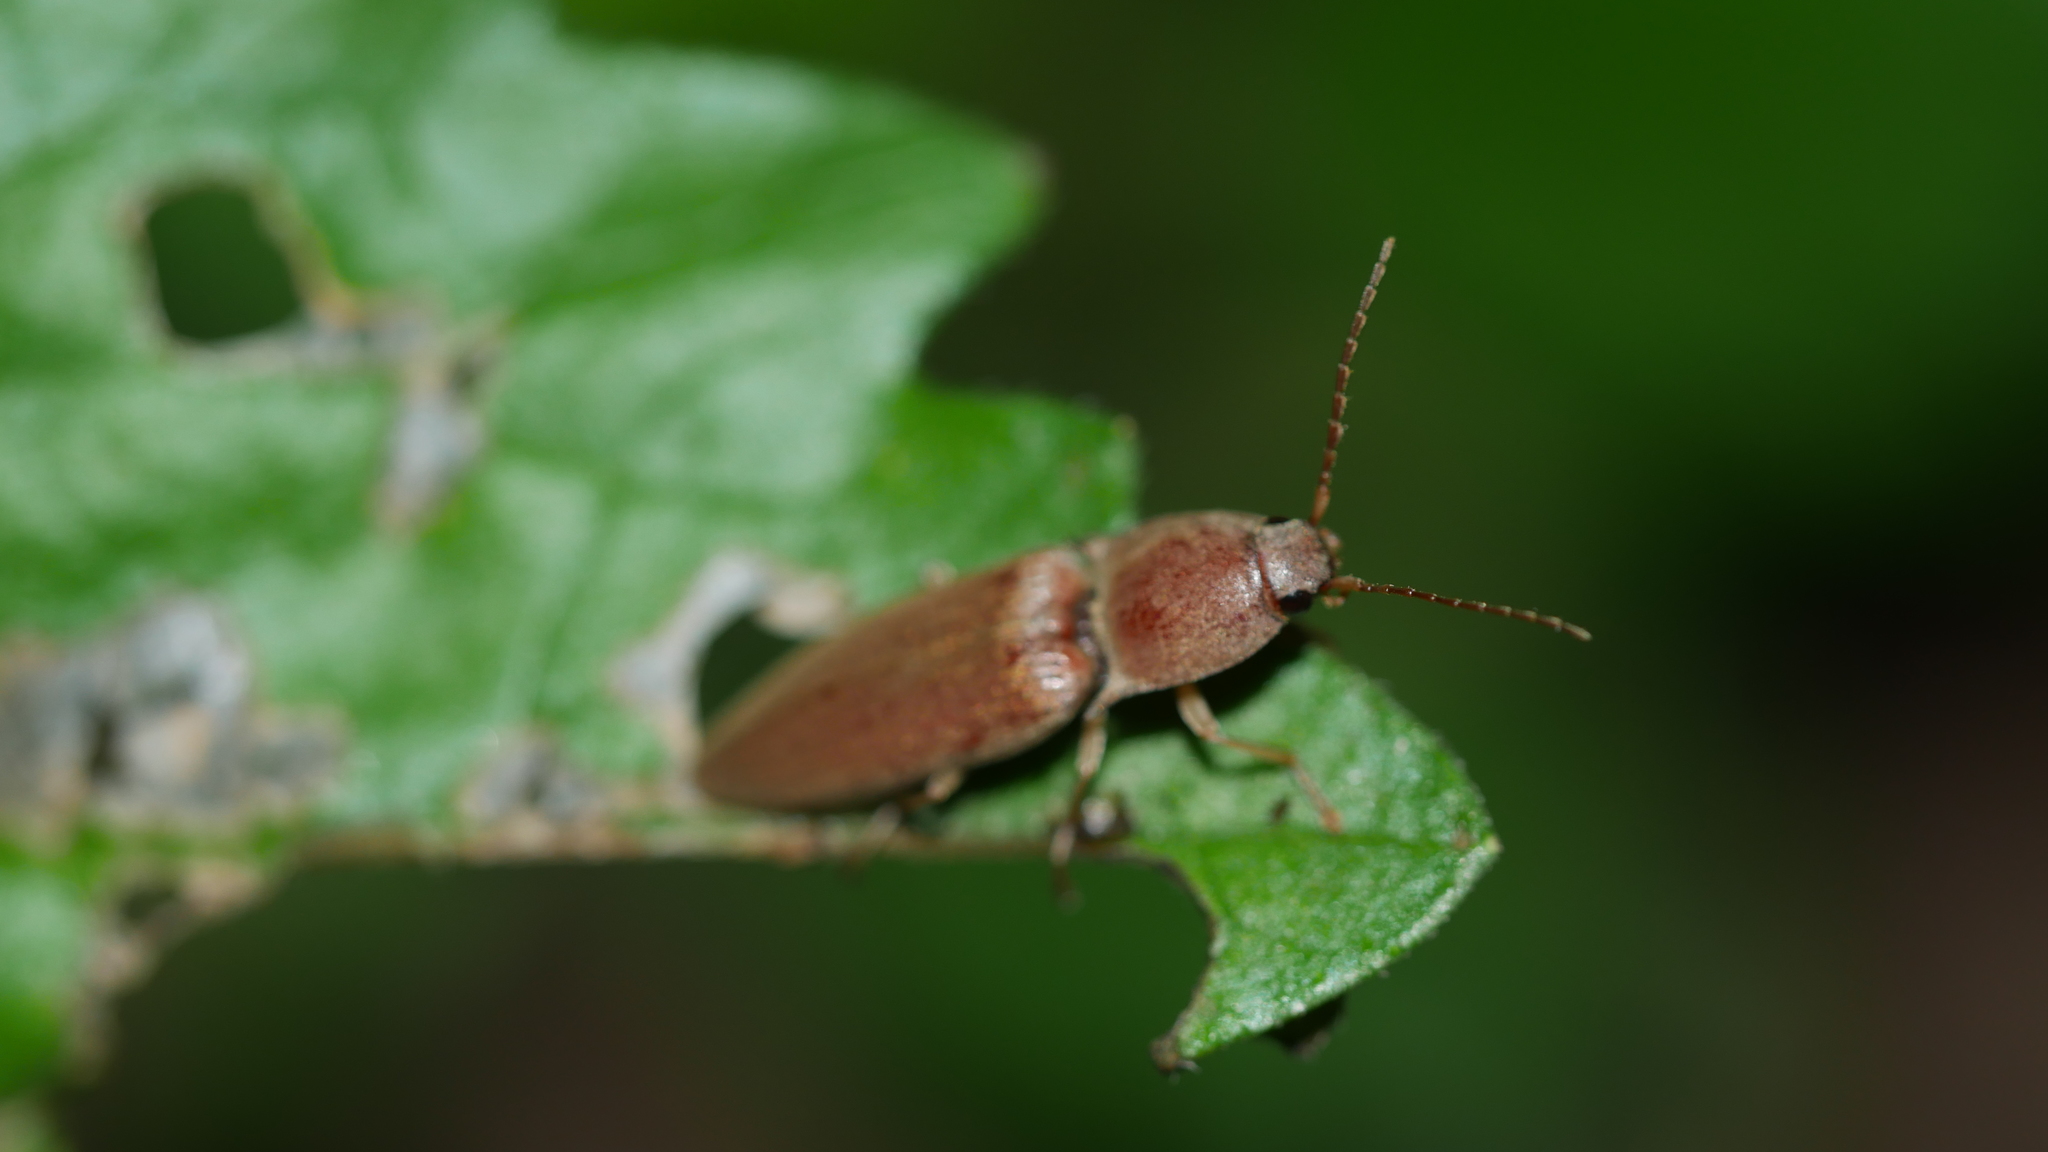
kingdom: Animalia
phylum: Arthropoda
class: Insecta
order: Coleoptera
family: Elateridae
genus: Monocrepidius
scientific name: Monocrepidius lividus
